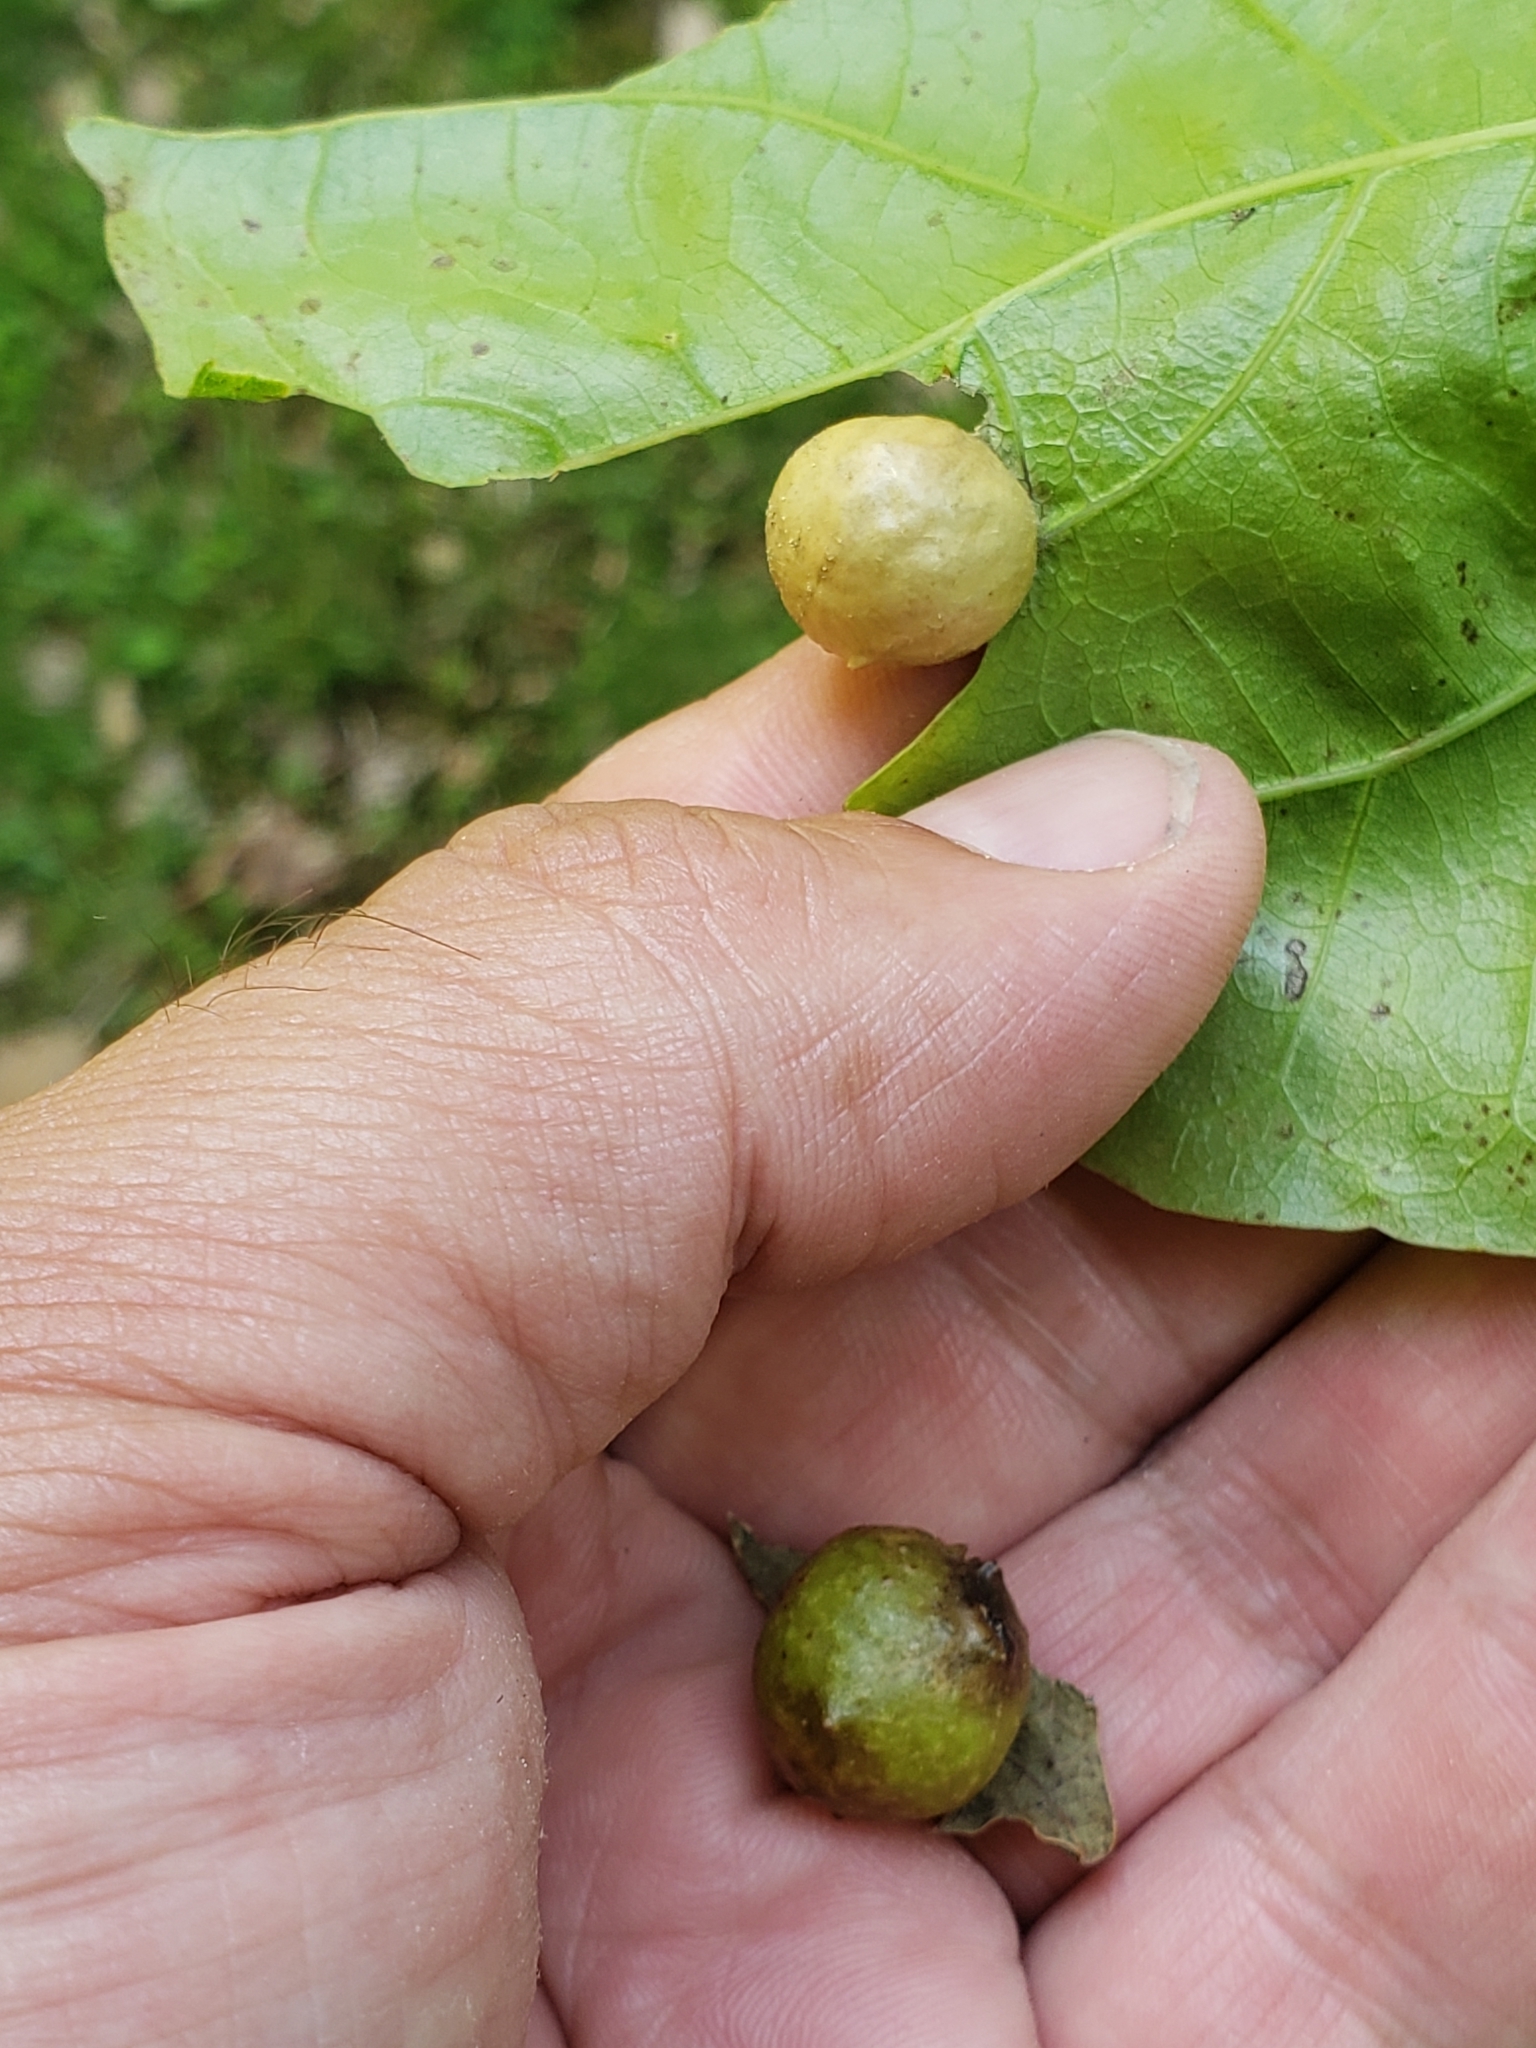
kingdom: Animalia
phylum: Arthropoda
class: Insecta
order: Hymenoptera
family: Cynipidae
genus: Amphibolips
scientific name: Amphibolips
